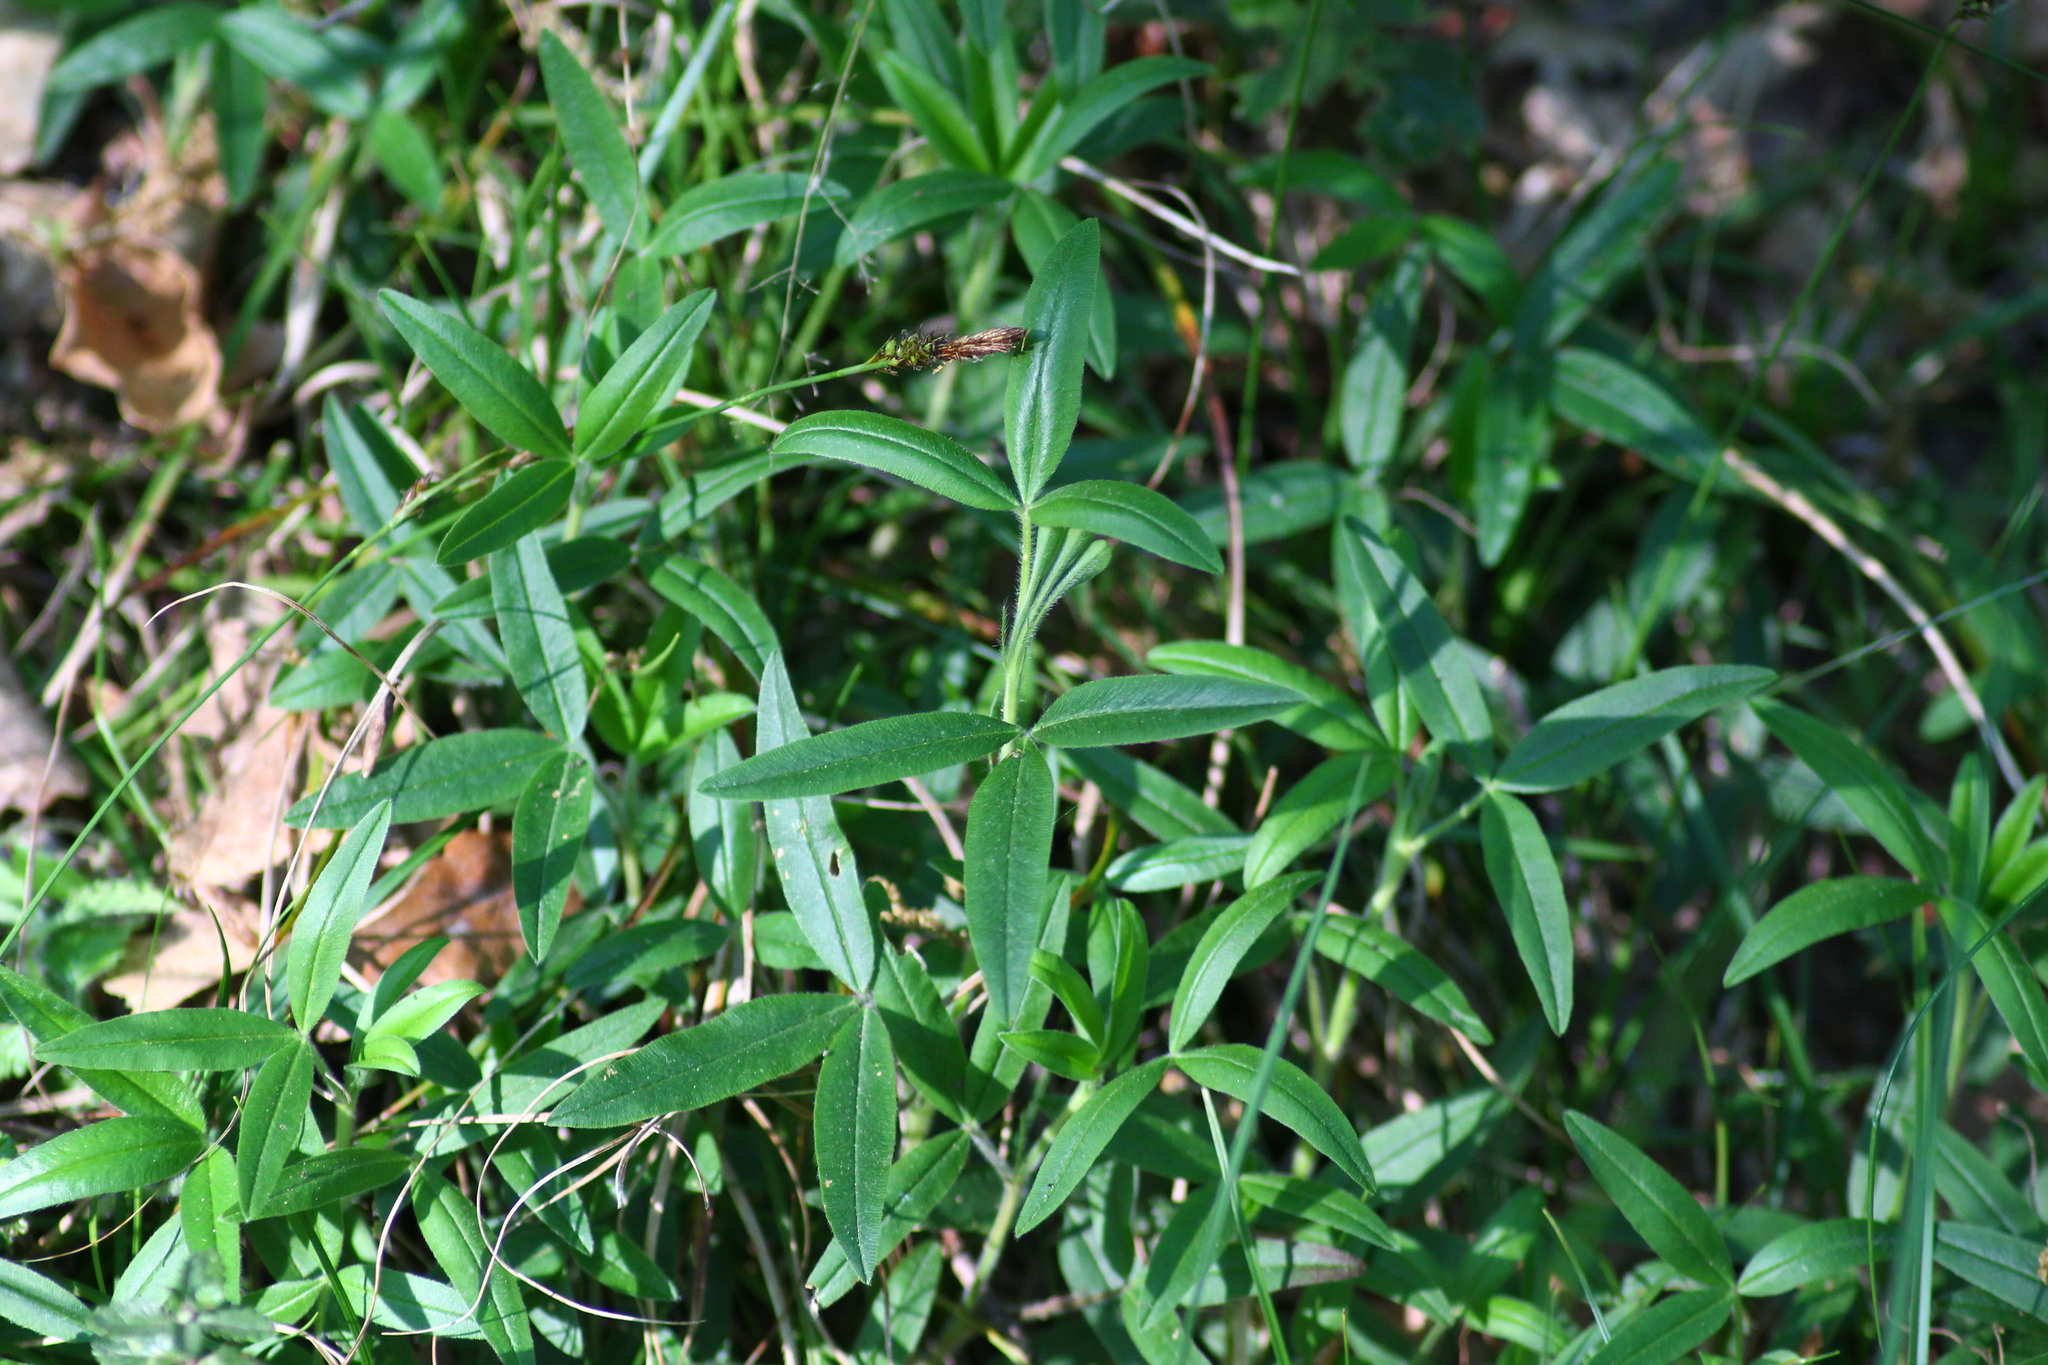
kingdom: Plantae
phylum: Tracheophyta
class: Magnoliopsida
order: Fabales
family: Fabaceae
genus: Trifolium
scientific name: Trifolium alpestre
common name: Owl-head clover
